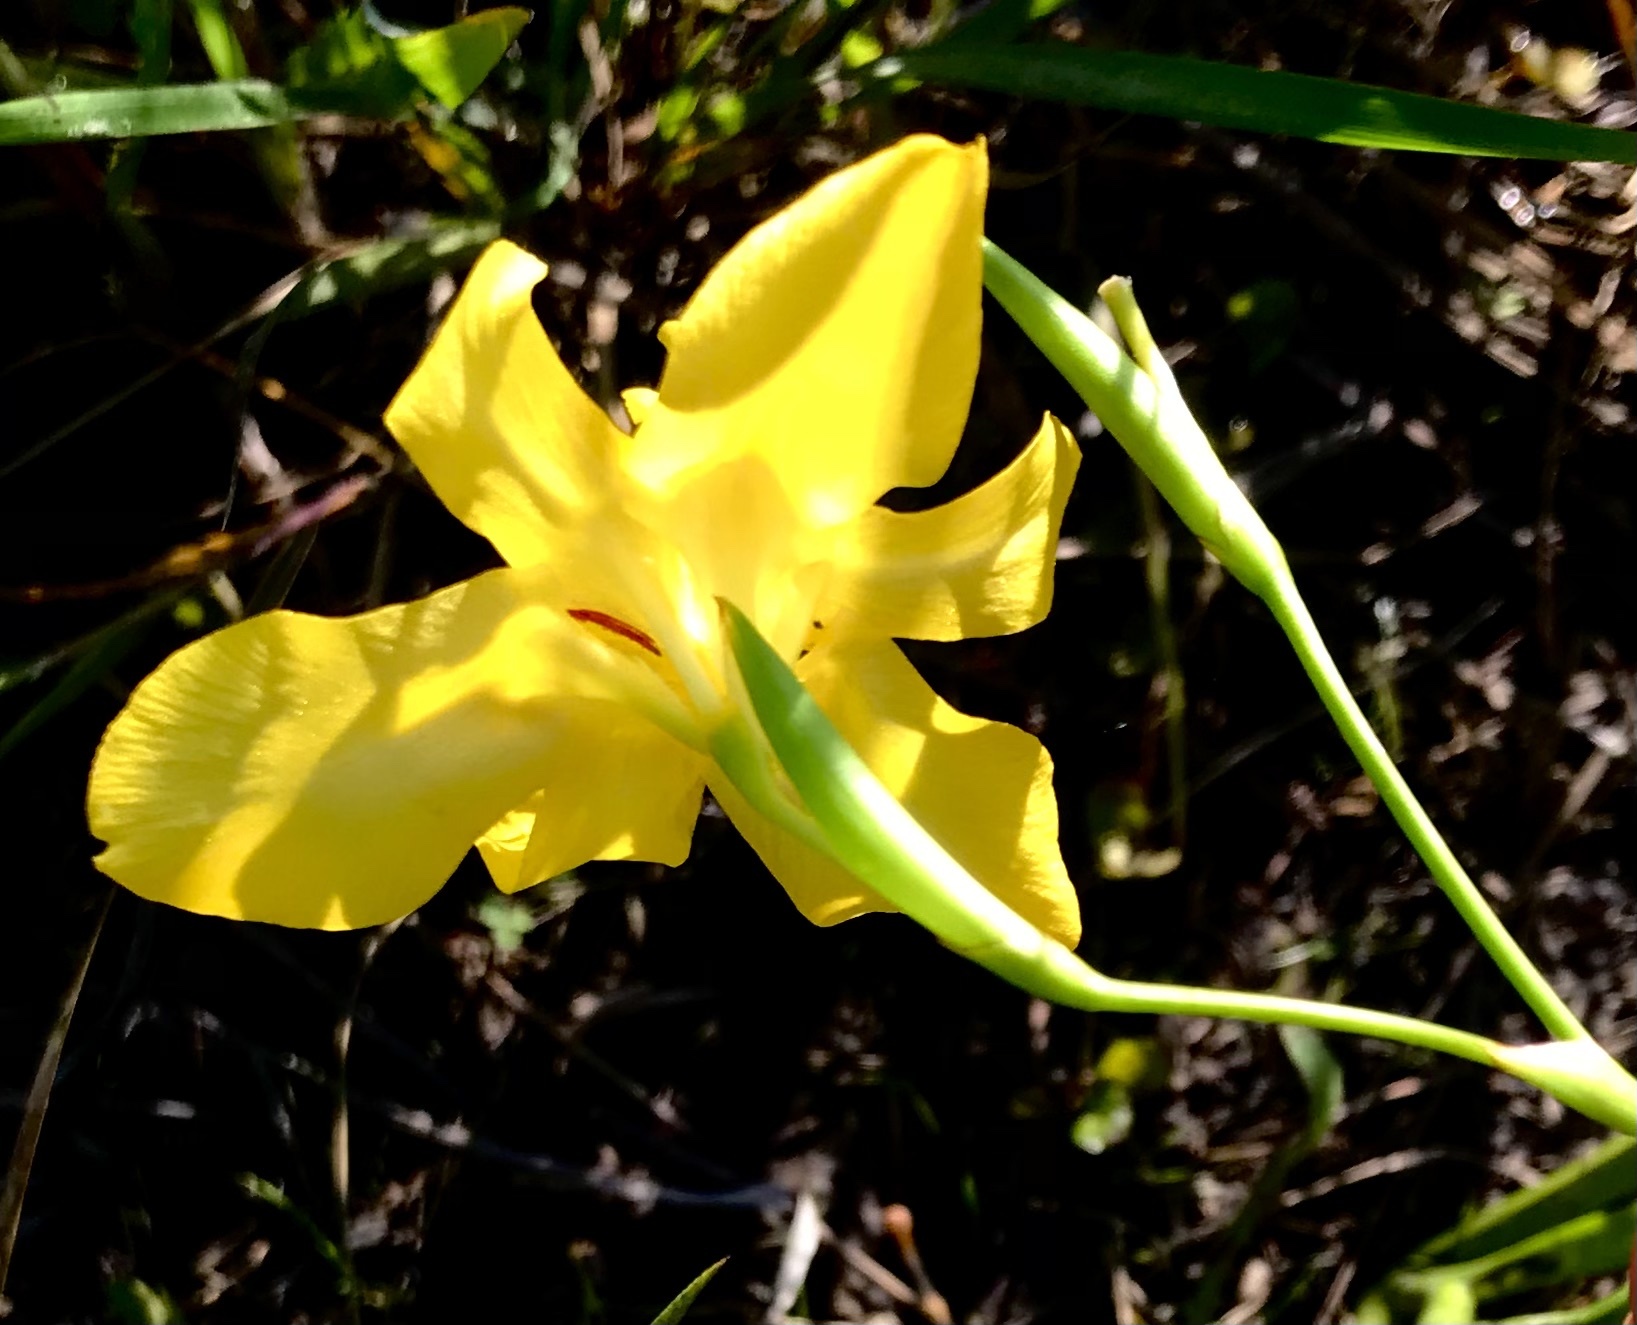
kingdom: Plantae
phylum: Tracheophyta
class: Liliopsida
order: Asparagales
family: Iridaceae
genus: Moraea
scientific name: Moraea ramosissima
